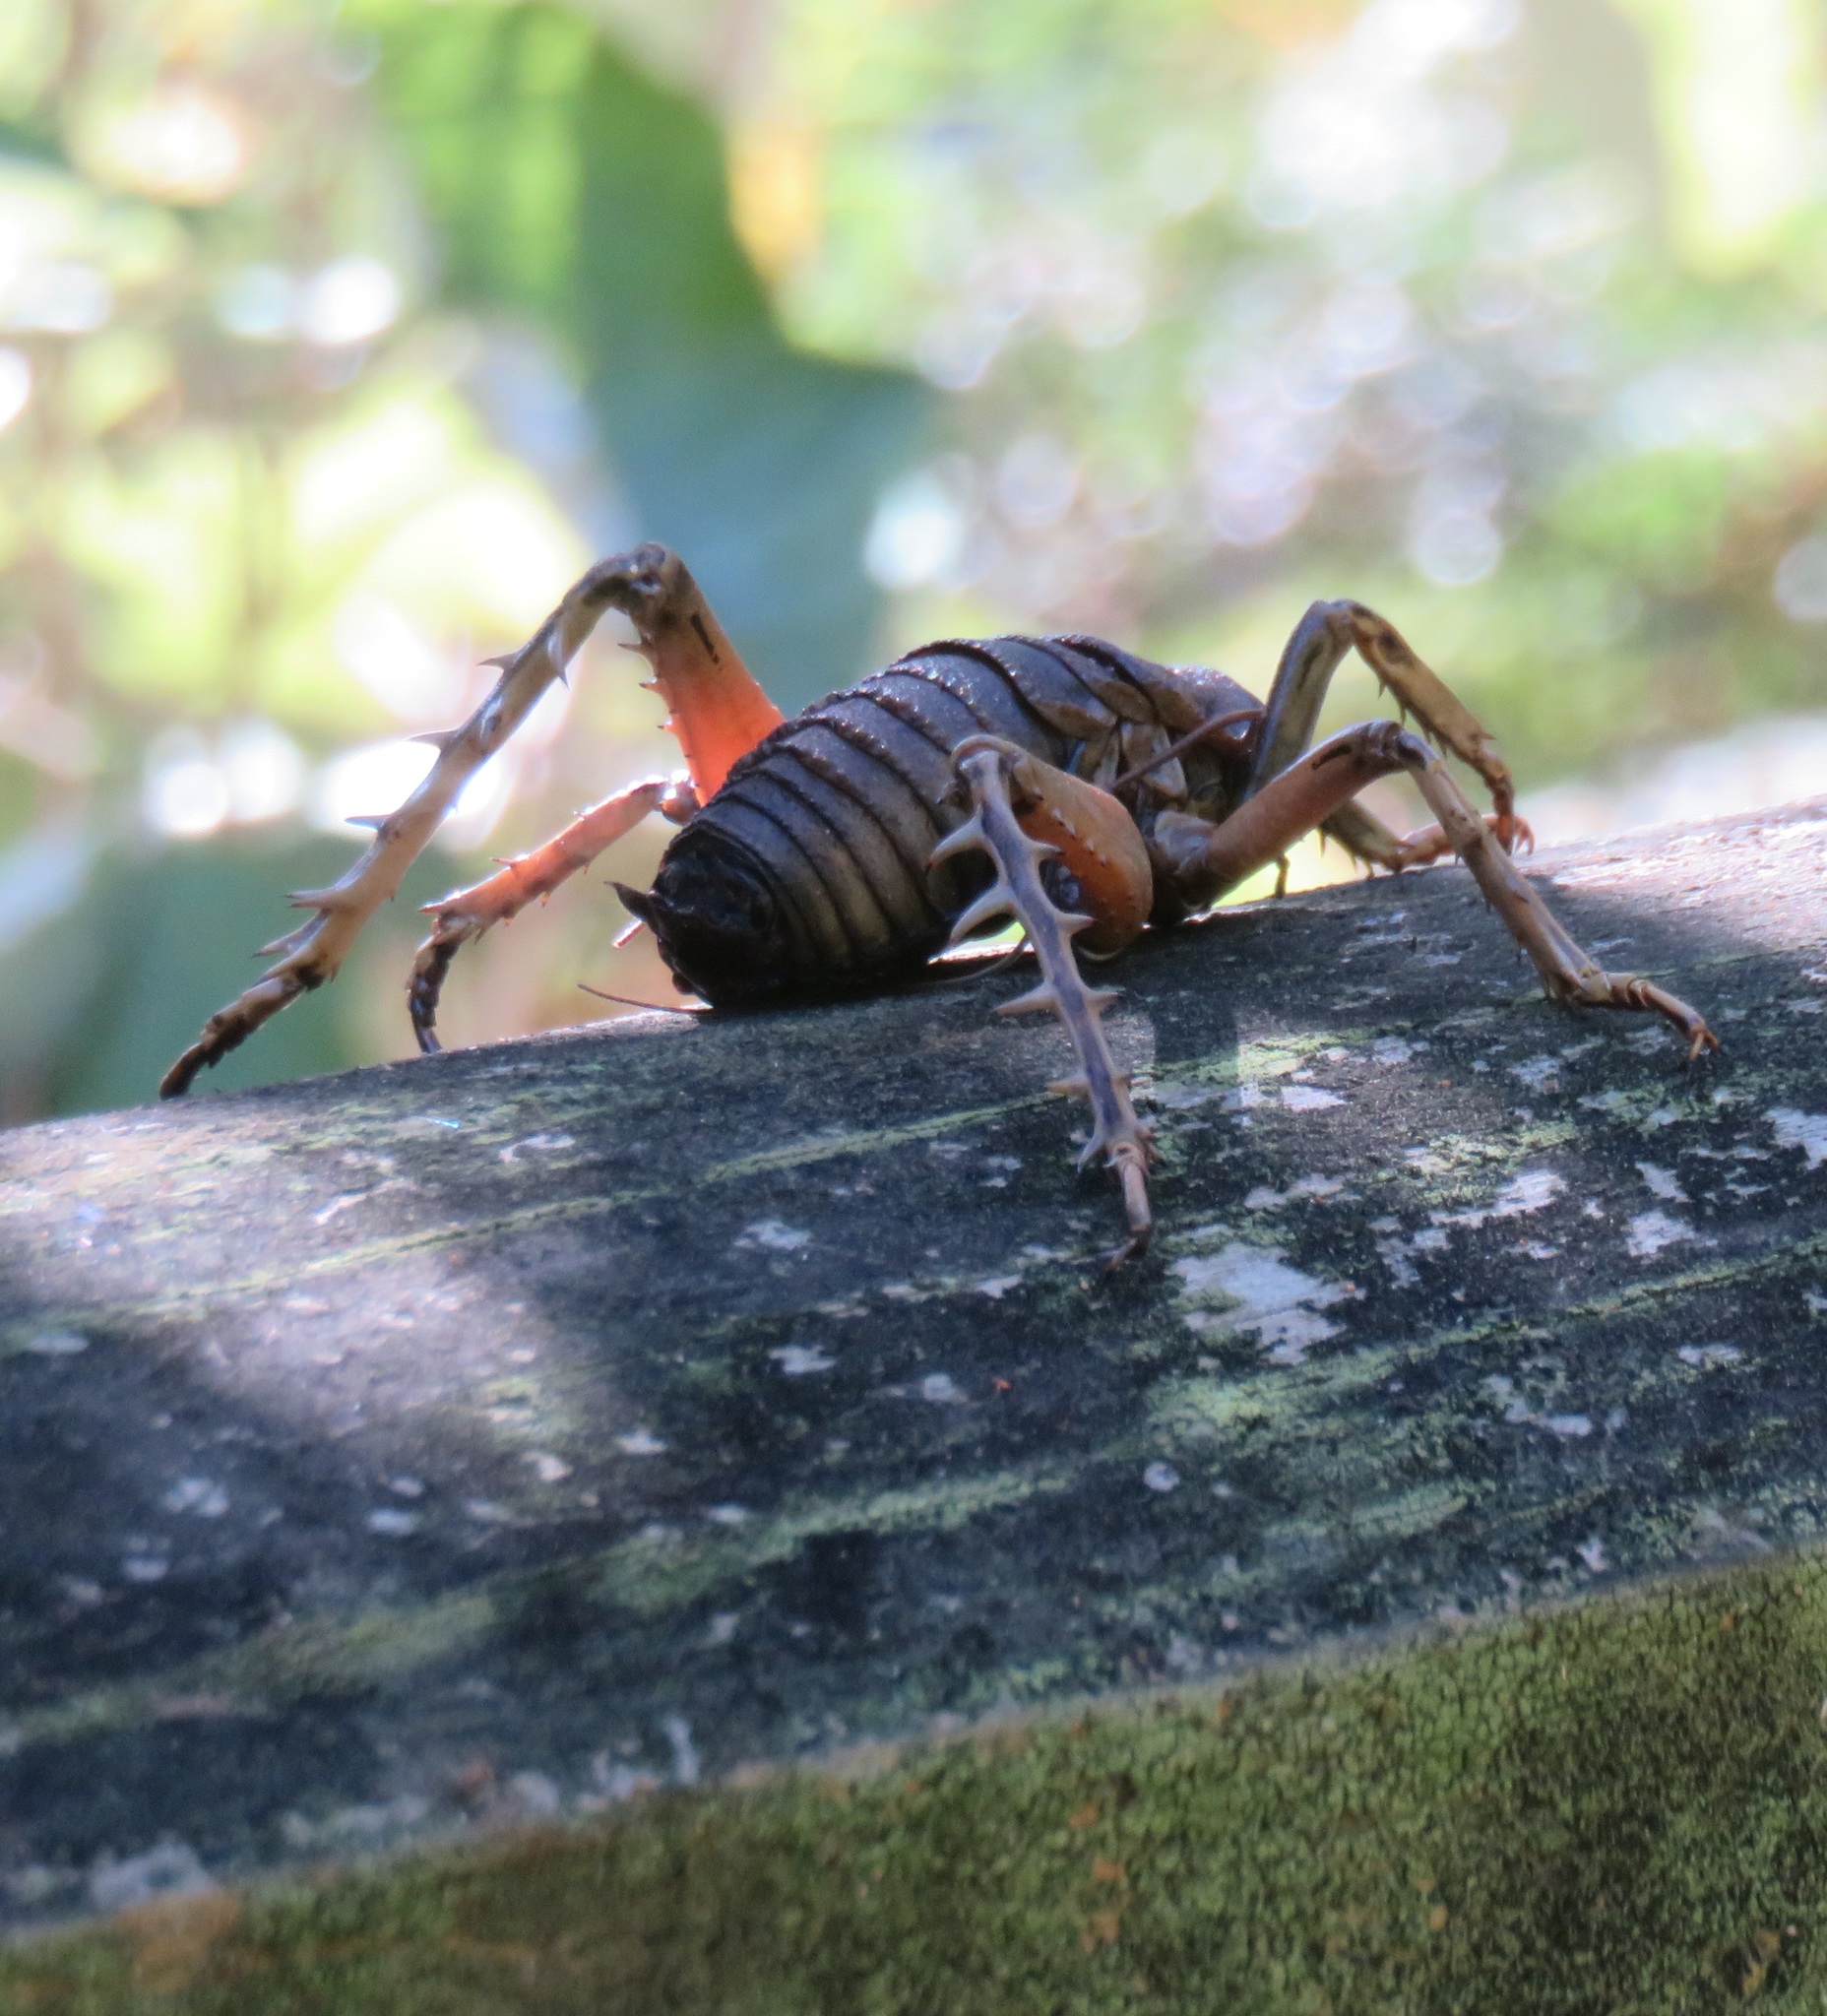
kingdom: Animalia
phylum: Arthropoda
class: Insecta
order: Orthoptera
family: Anostostomatidae
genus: Deinacrida
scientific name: Deinacrida rugosa
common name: Stephens island weta
